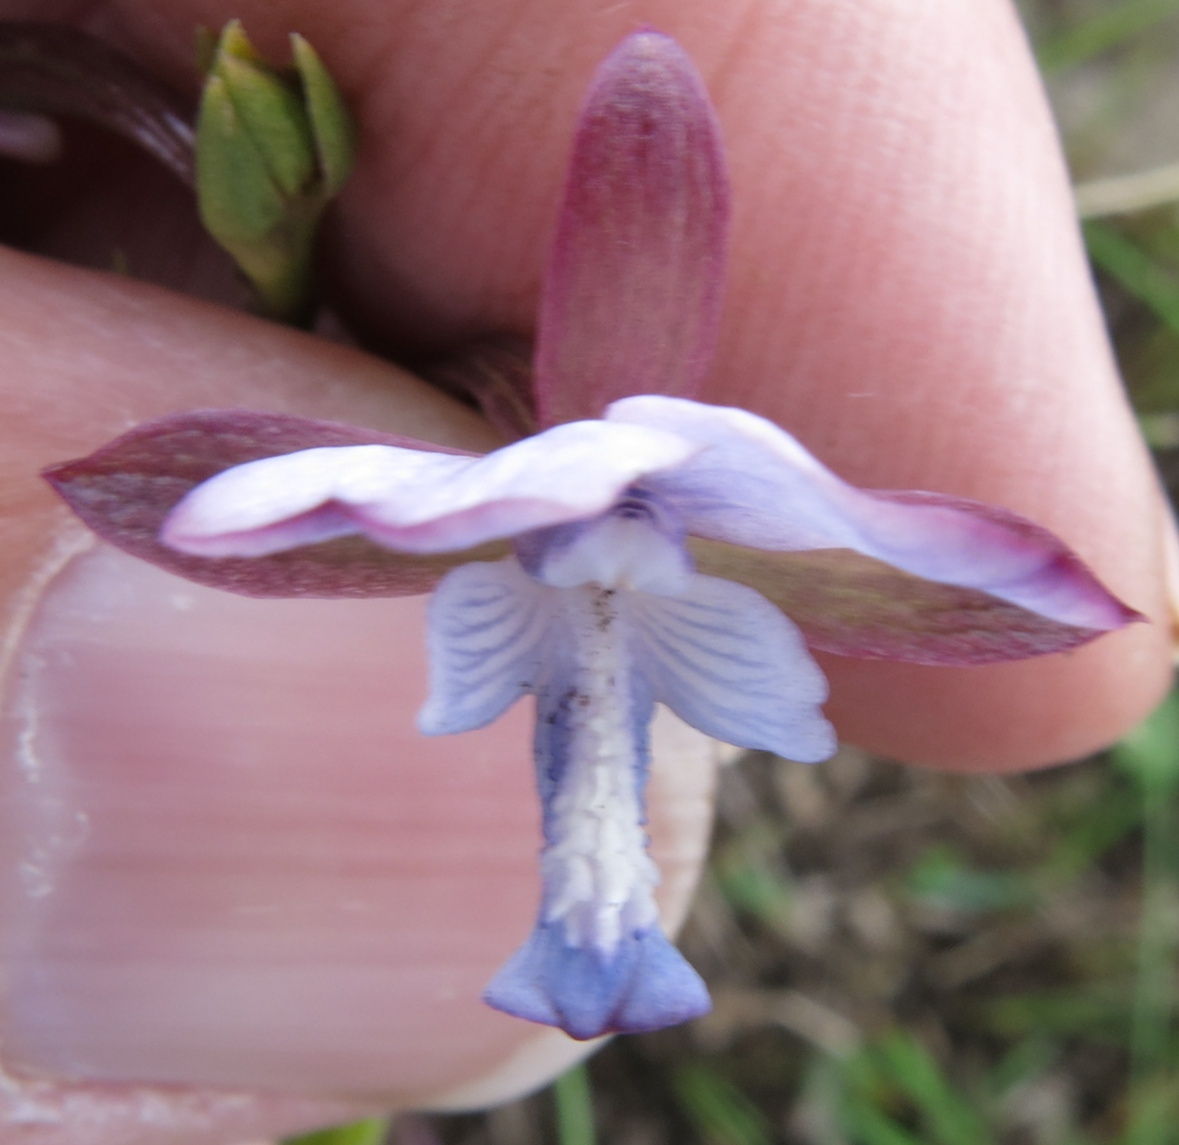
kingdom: Plantae
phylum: Tracheophyta
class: Liliopsida
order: Asparagales
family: Orchidaceae
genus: Eulophia
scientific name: Eulophia zeyheriana
